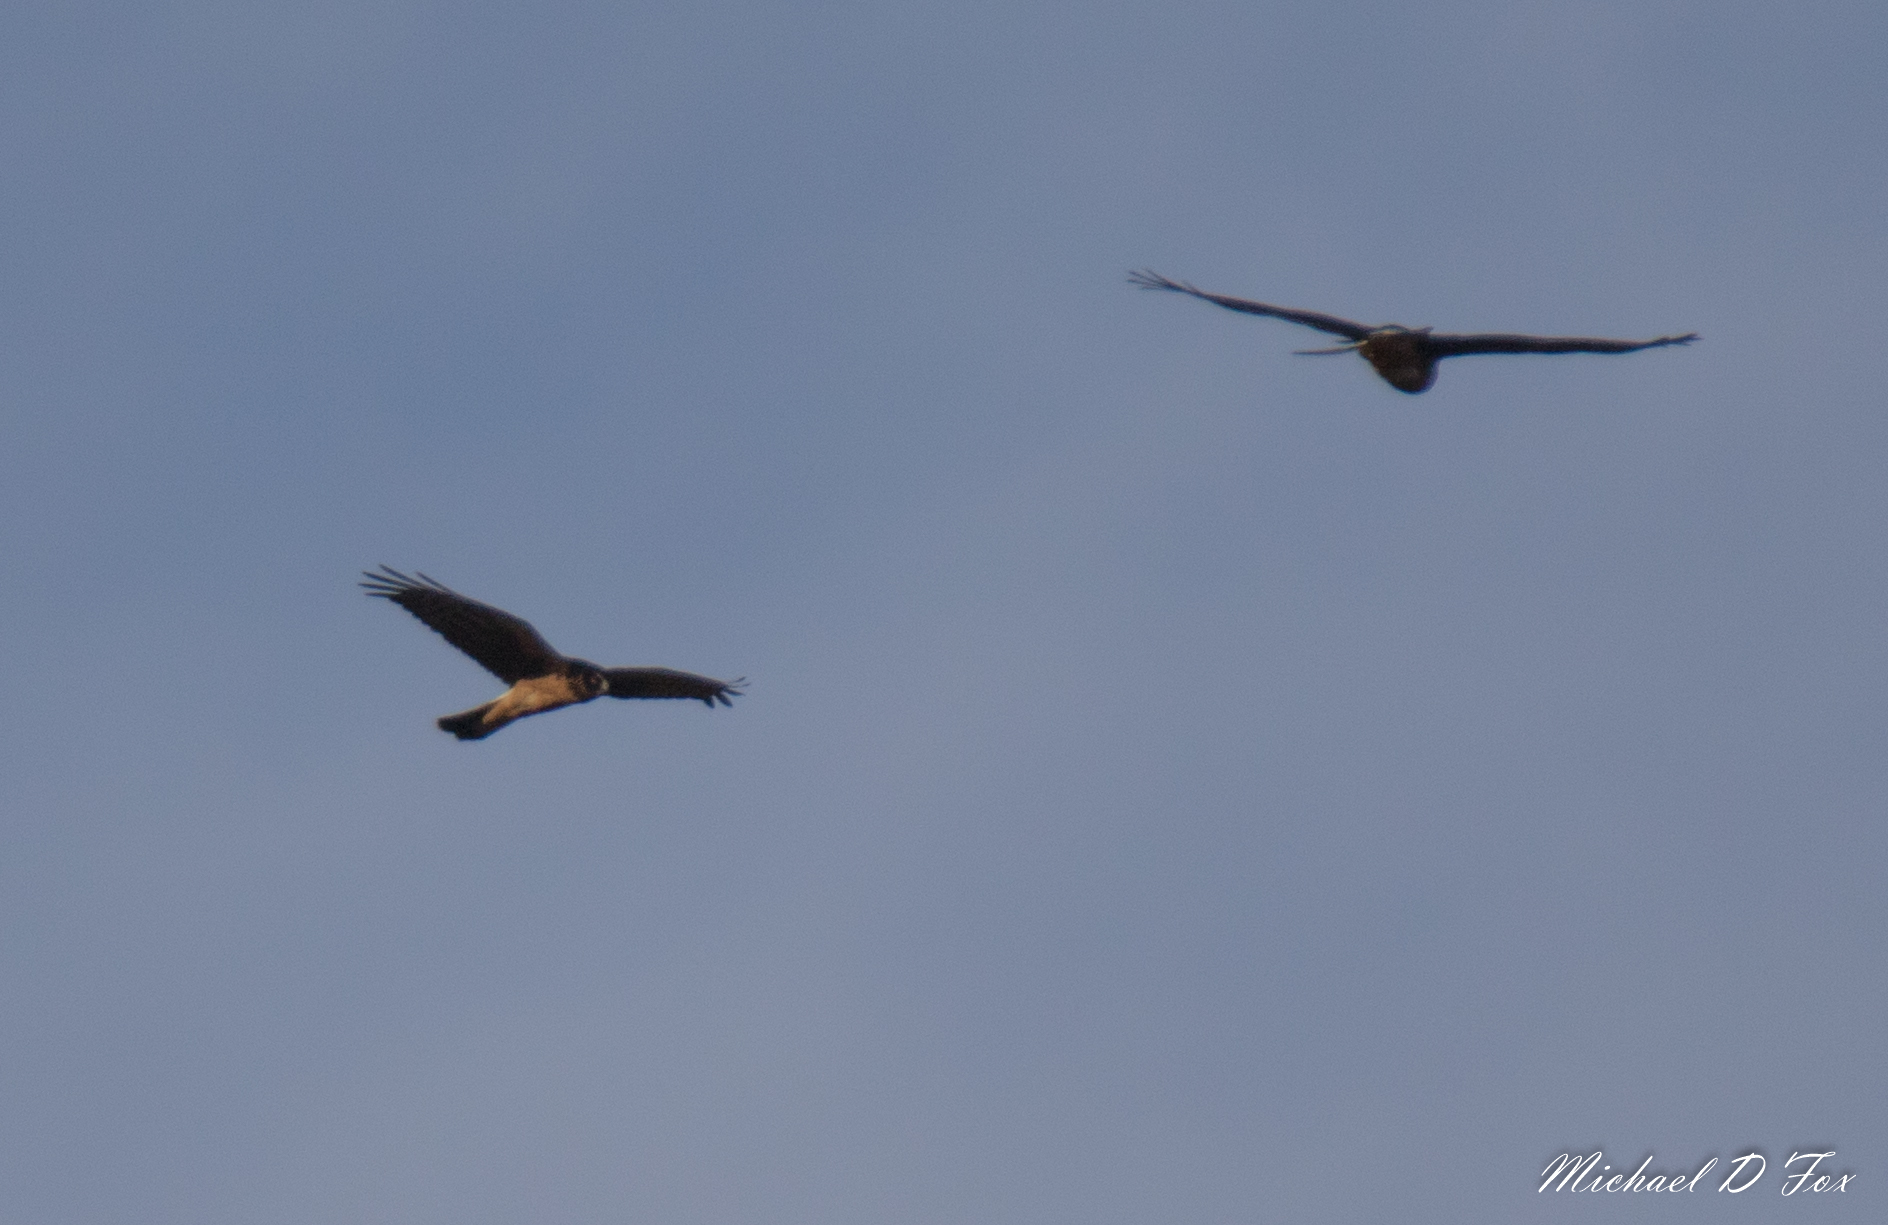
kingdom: Animalia
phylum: Chordata
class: Aves
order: Accipitriformes
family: Accipitridae
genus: Circus
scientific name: Circus cyaneus
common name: Hen harrier
